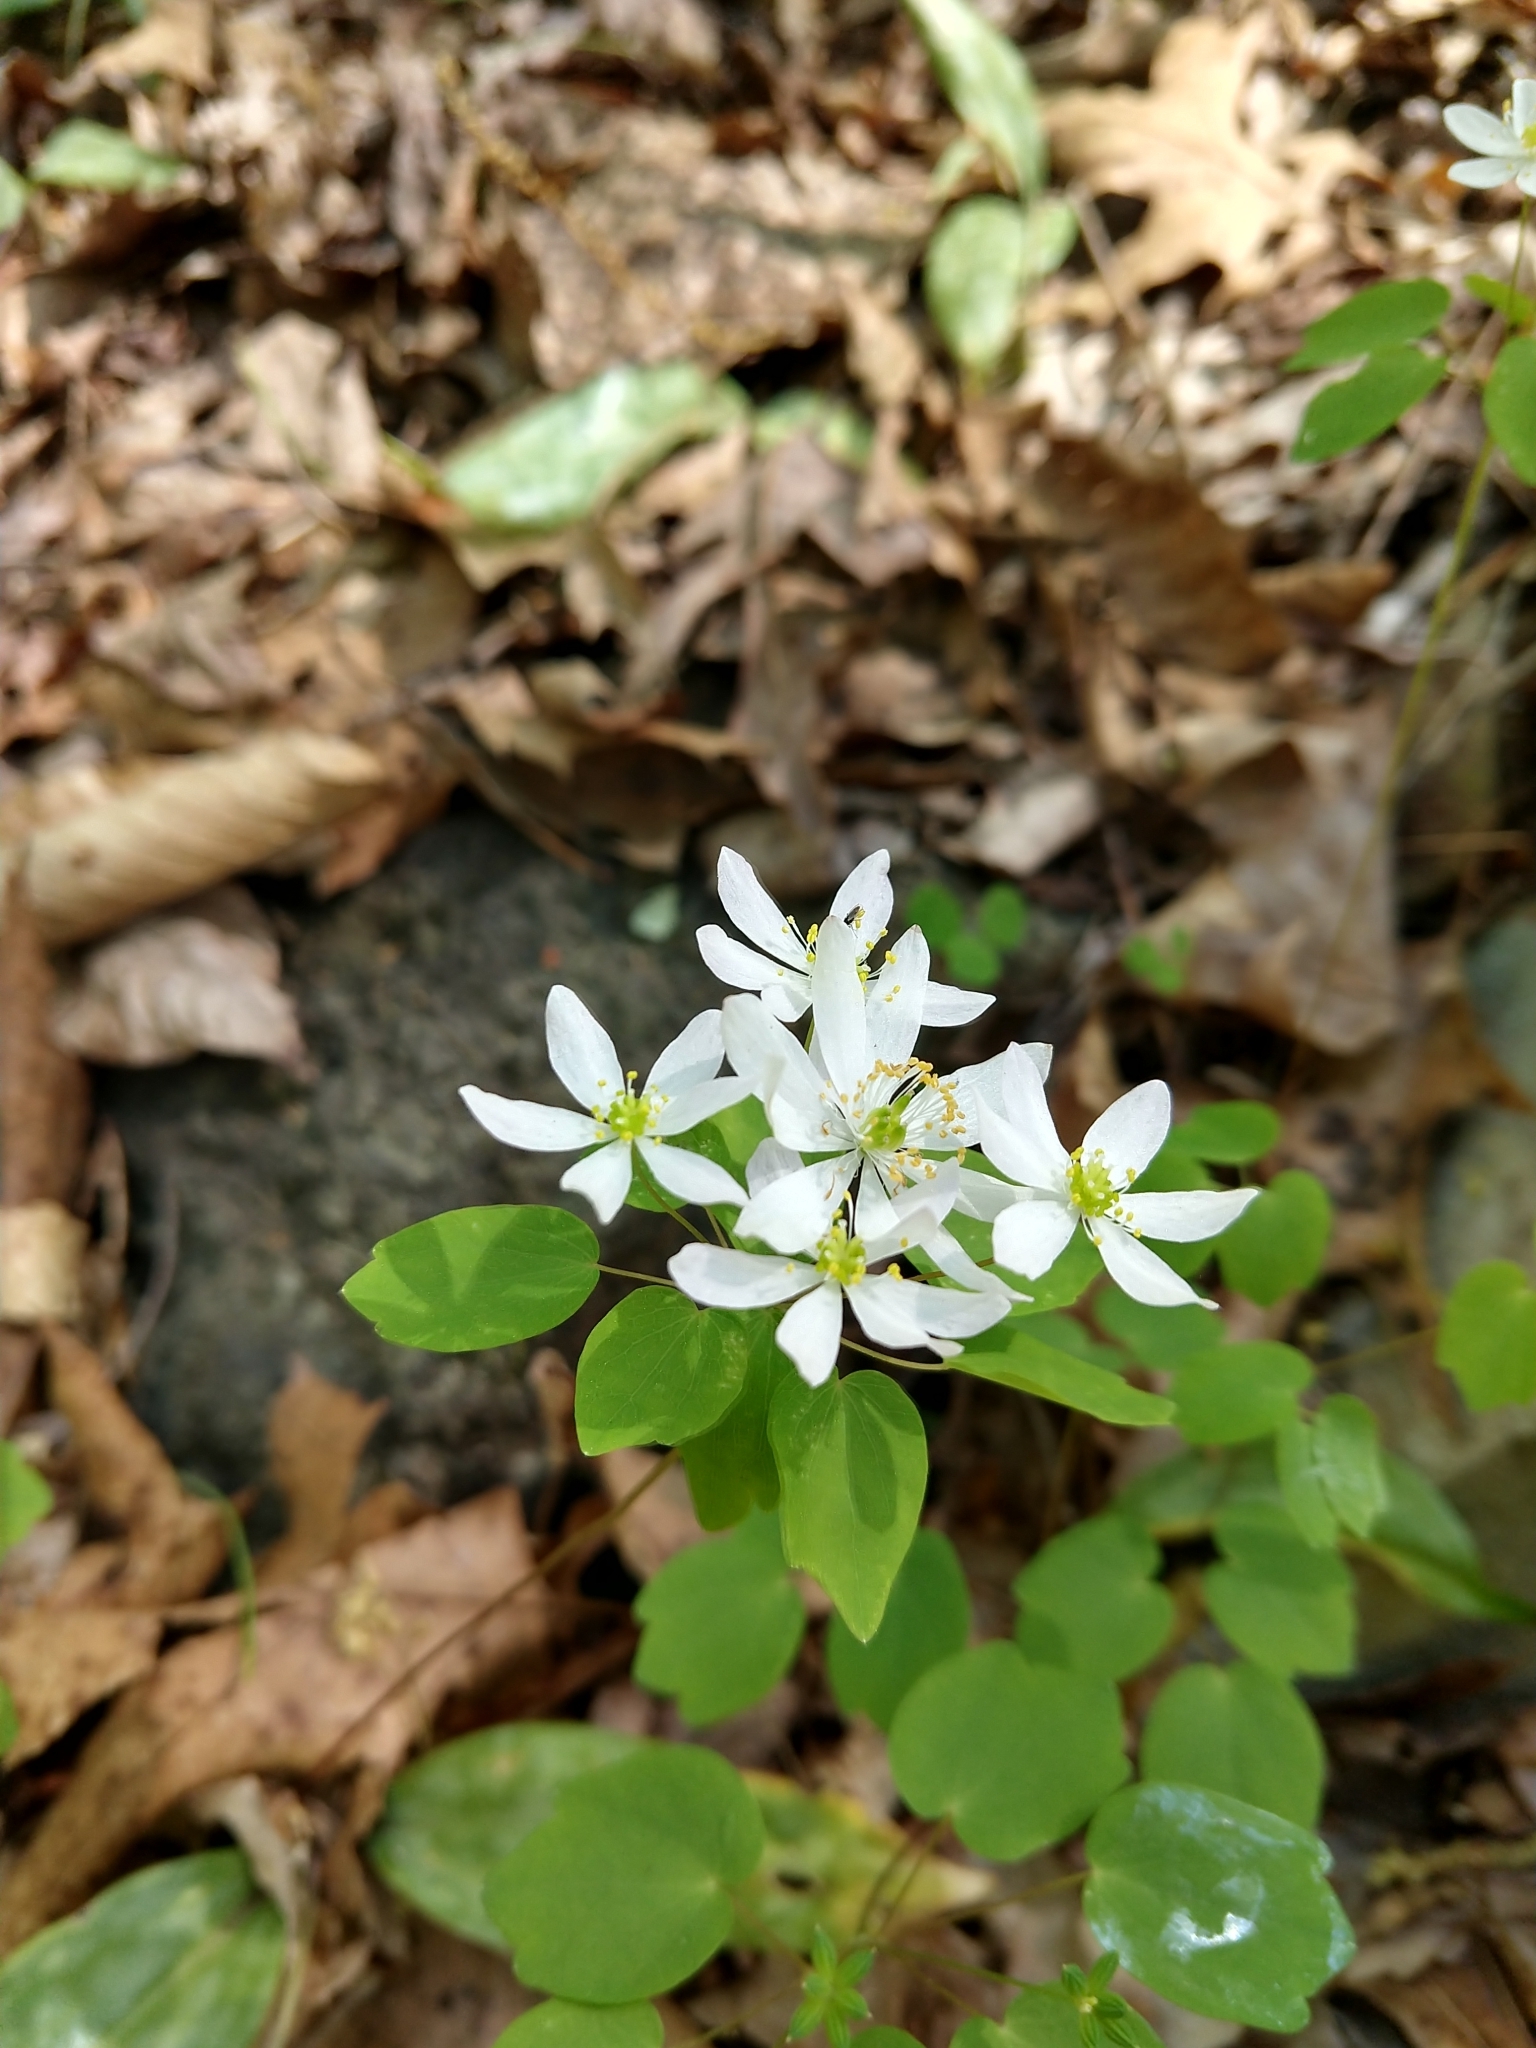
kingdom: Plantae
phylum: Tracheophyta
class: Magnoliopsida
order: Ranunculales
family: Ranunculaceae
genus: Thalictrum
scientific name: Thalictrum thalictroides
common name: Rue-anemone
